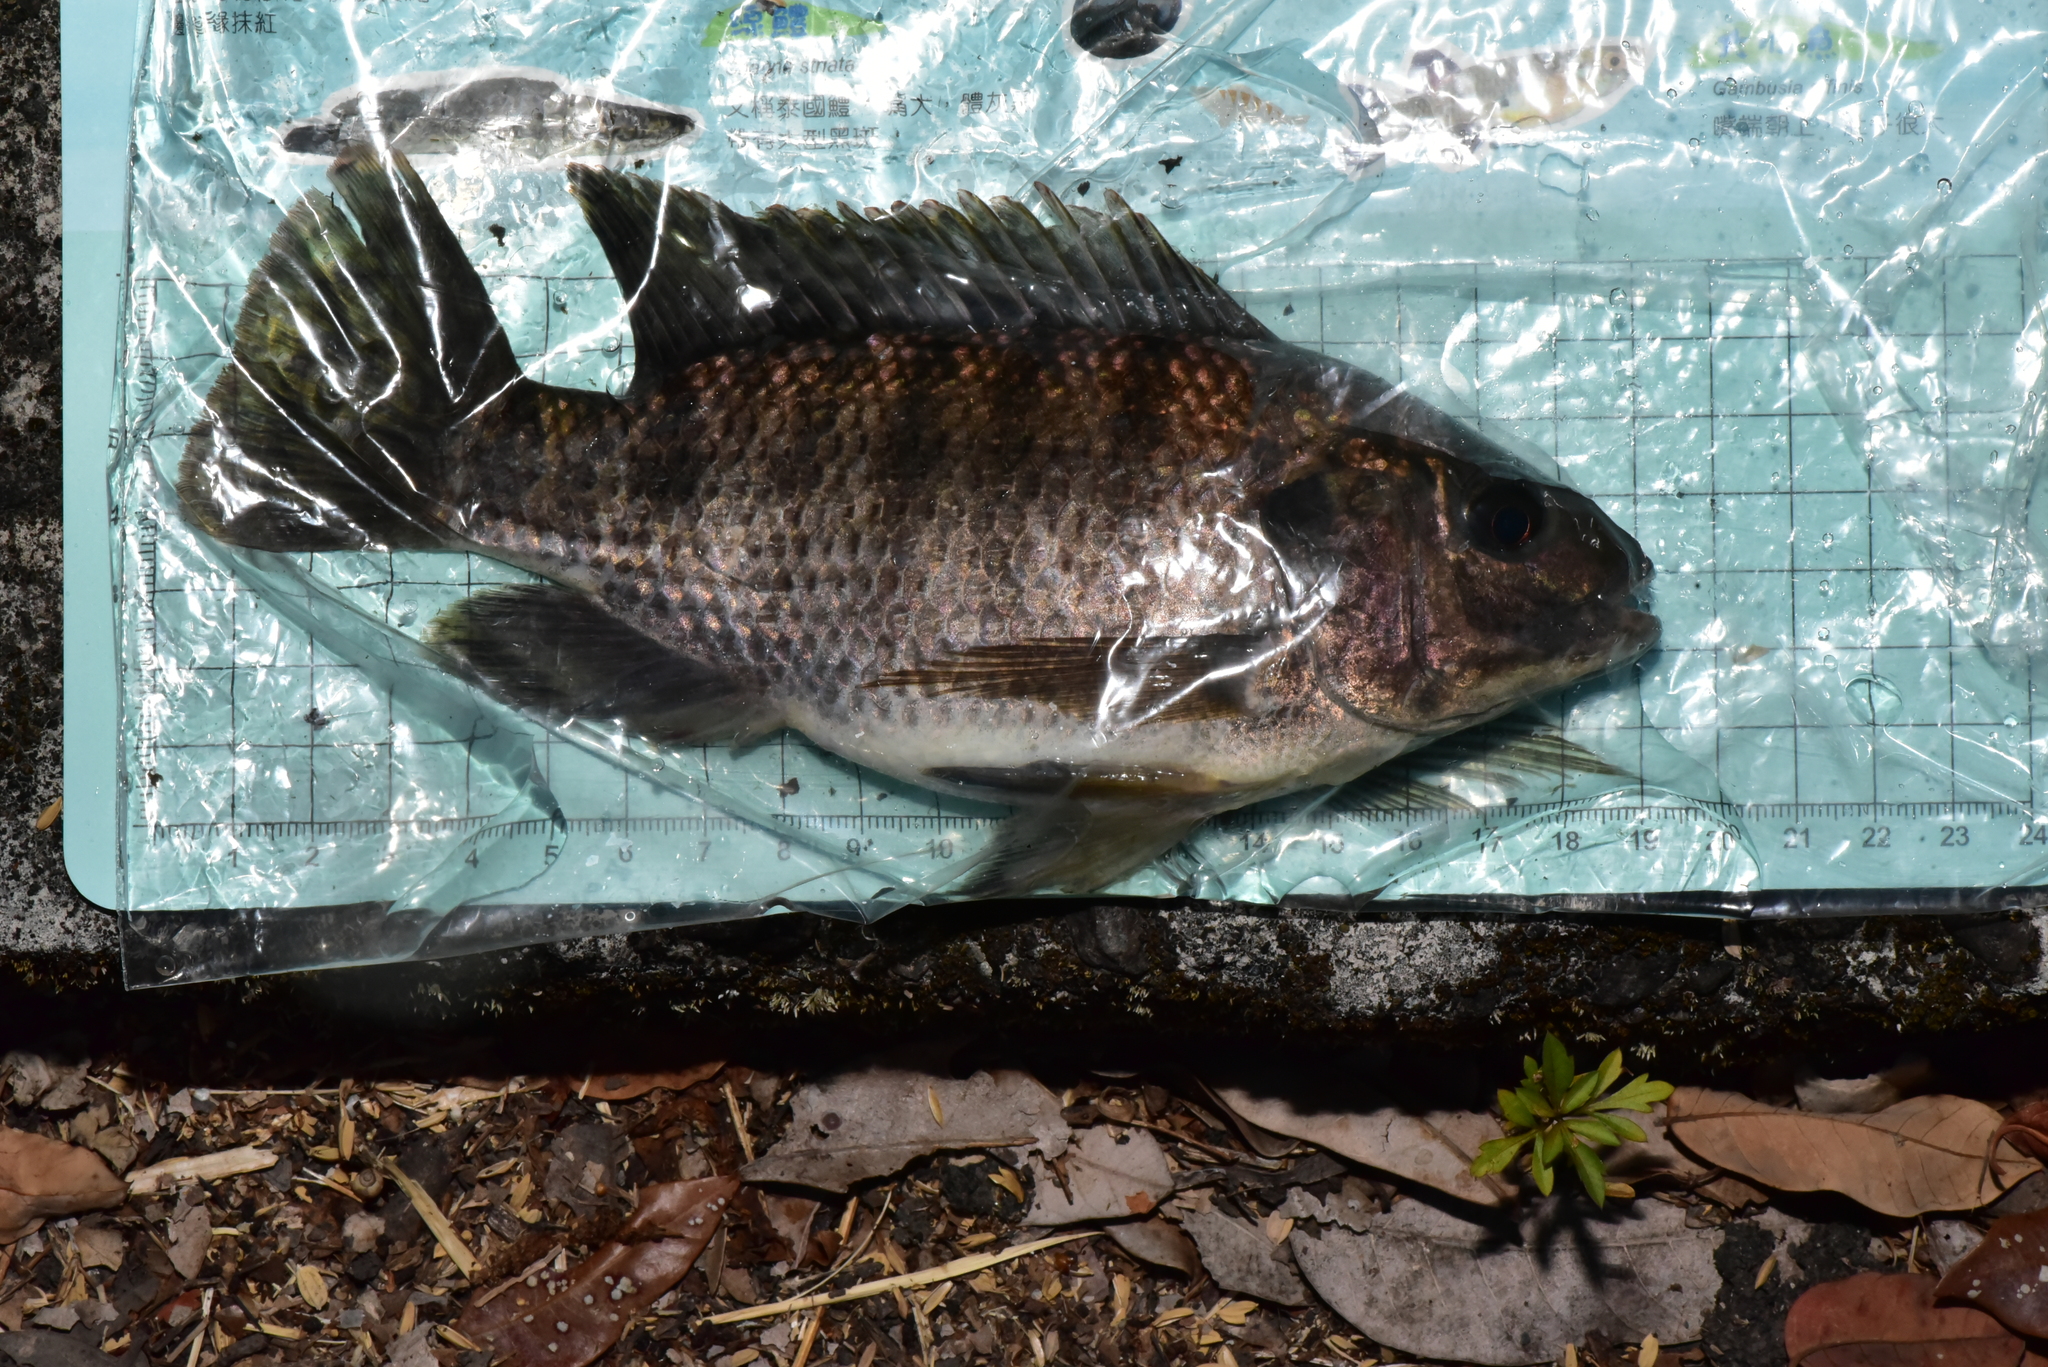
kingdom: Animalia
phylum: Chordata
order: Perciformes
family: Cichlidae
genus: Oreochromis
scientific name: Oreochromis niloticus
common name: Nile tilapia
